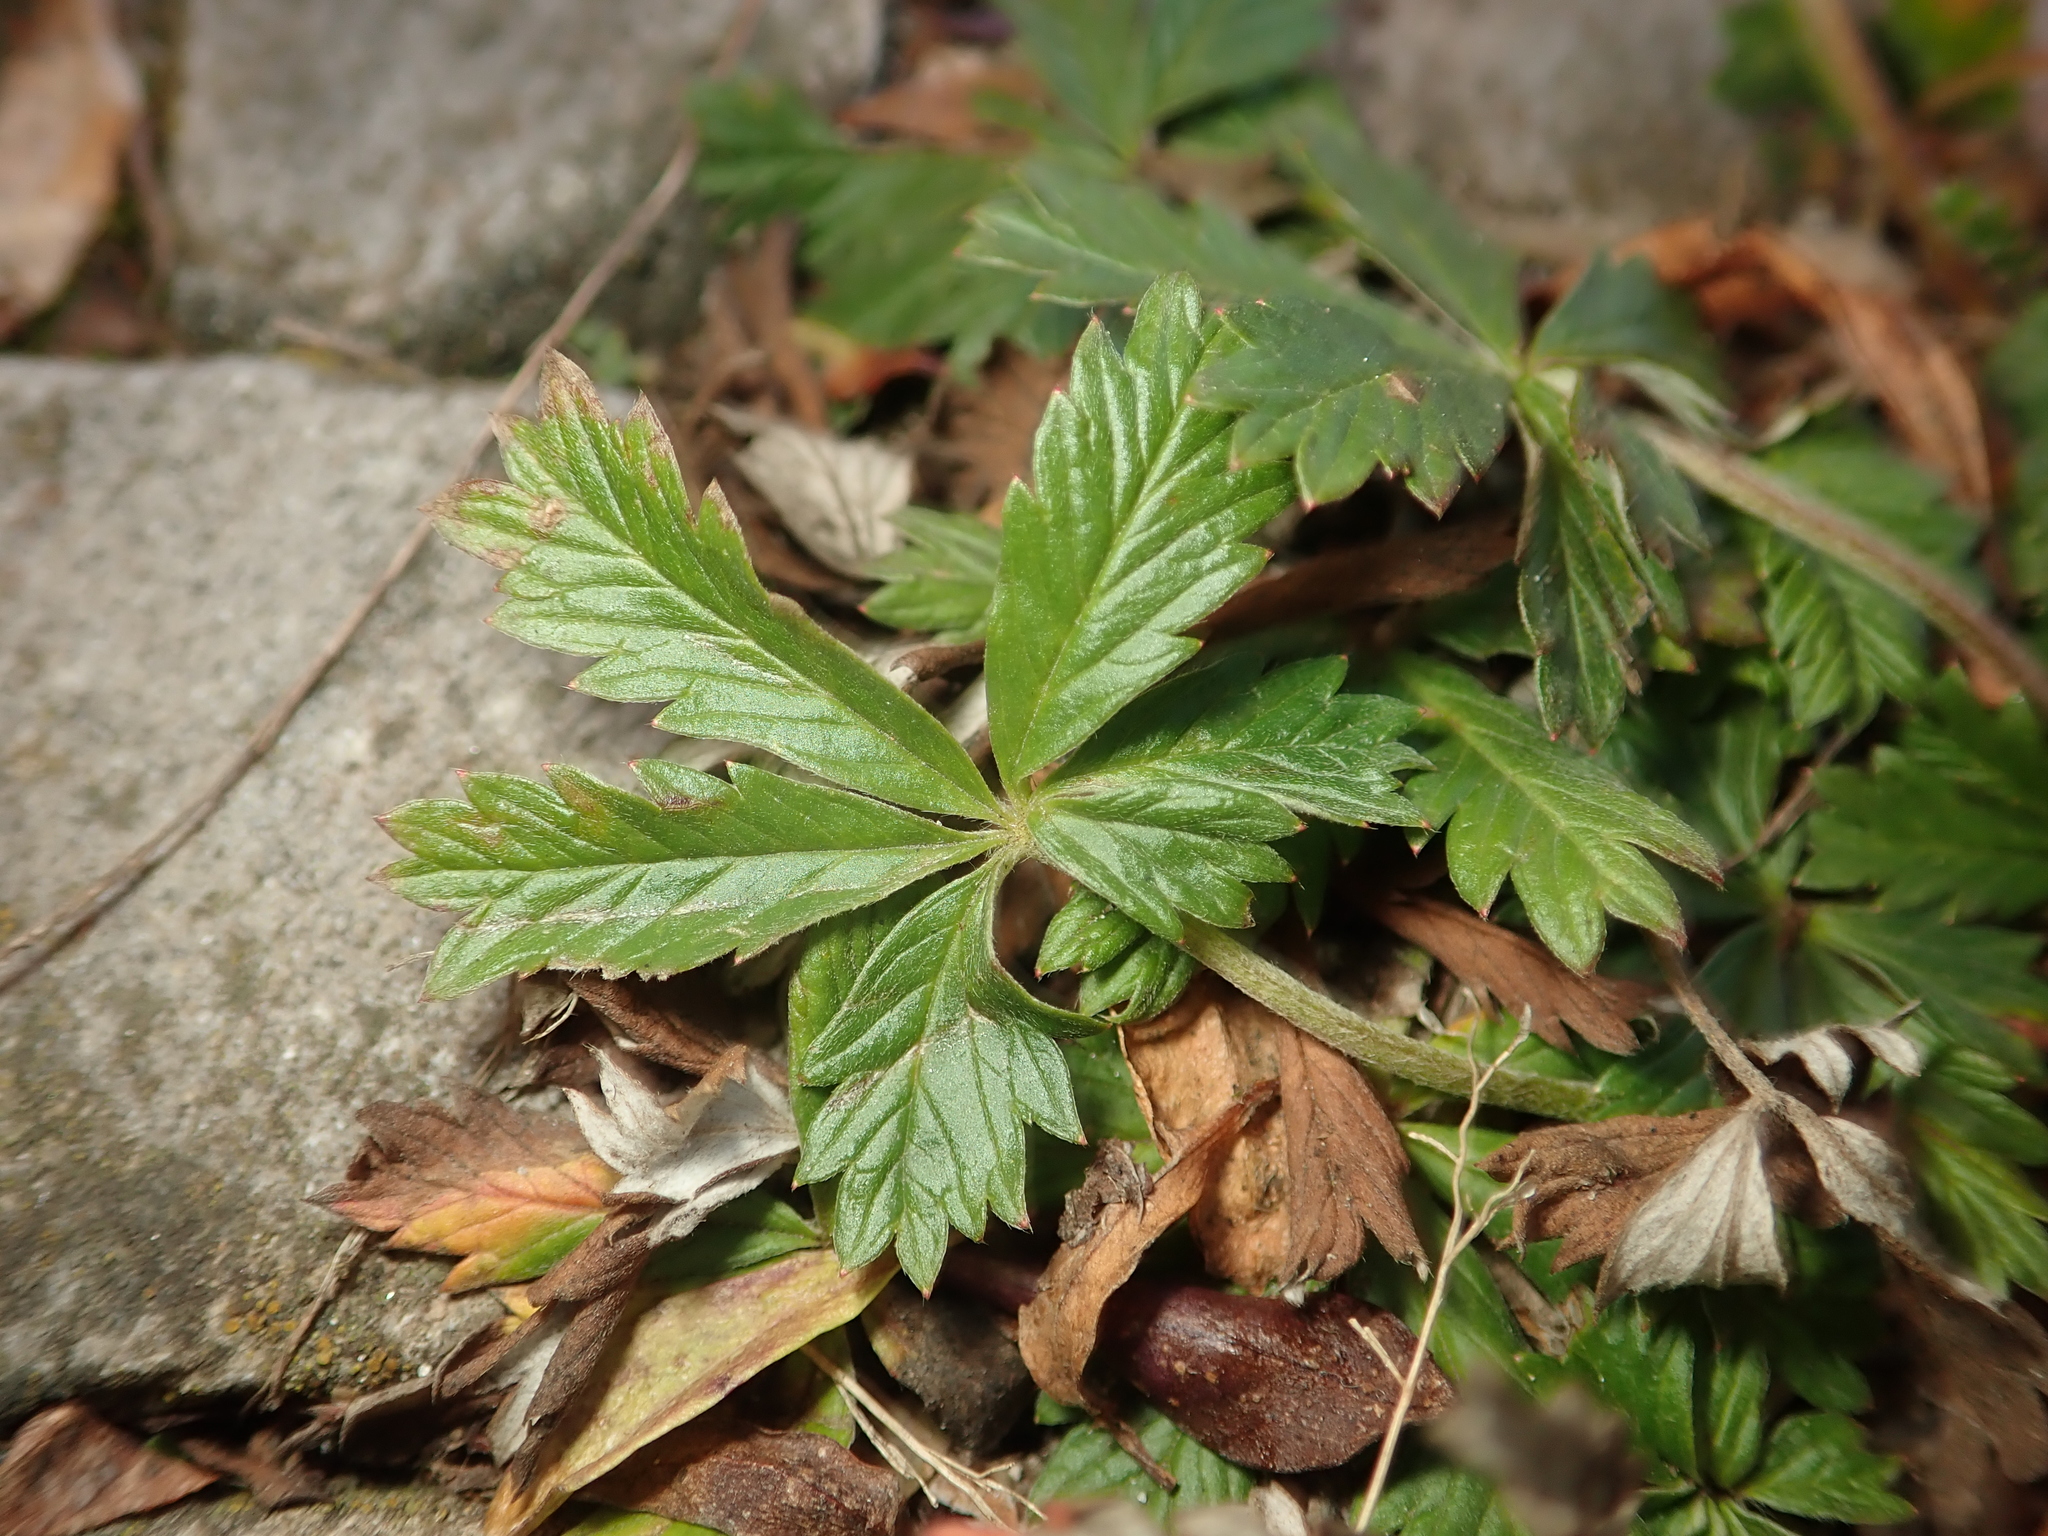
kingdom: Plantae
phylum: Tracheophyta
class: Magnoliopsida
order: Rosales
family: Rosaceae
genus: Potentilla
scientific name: Potentilla argentea
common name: Hoary cinquefoil
